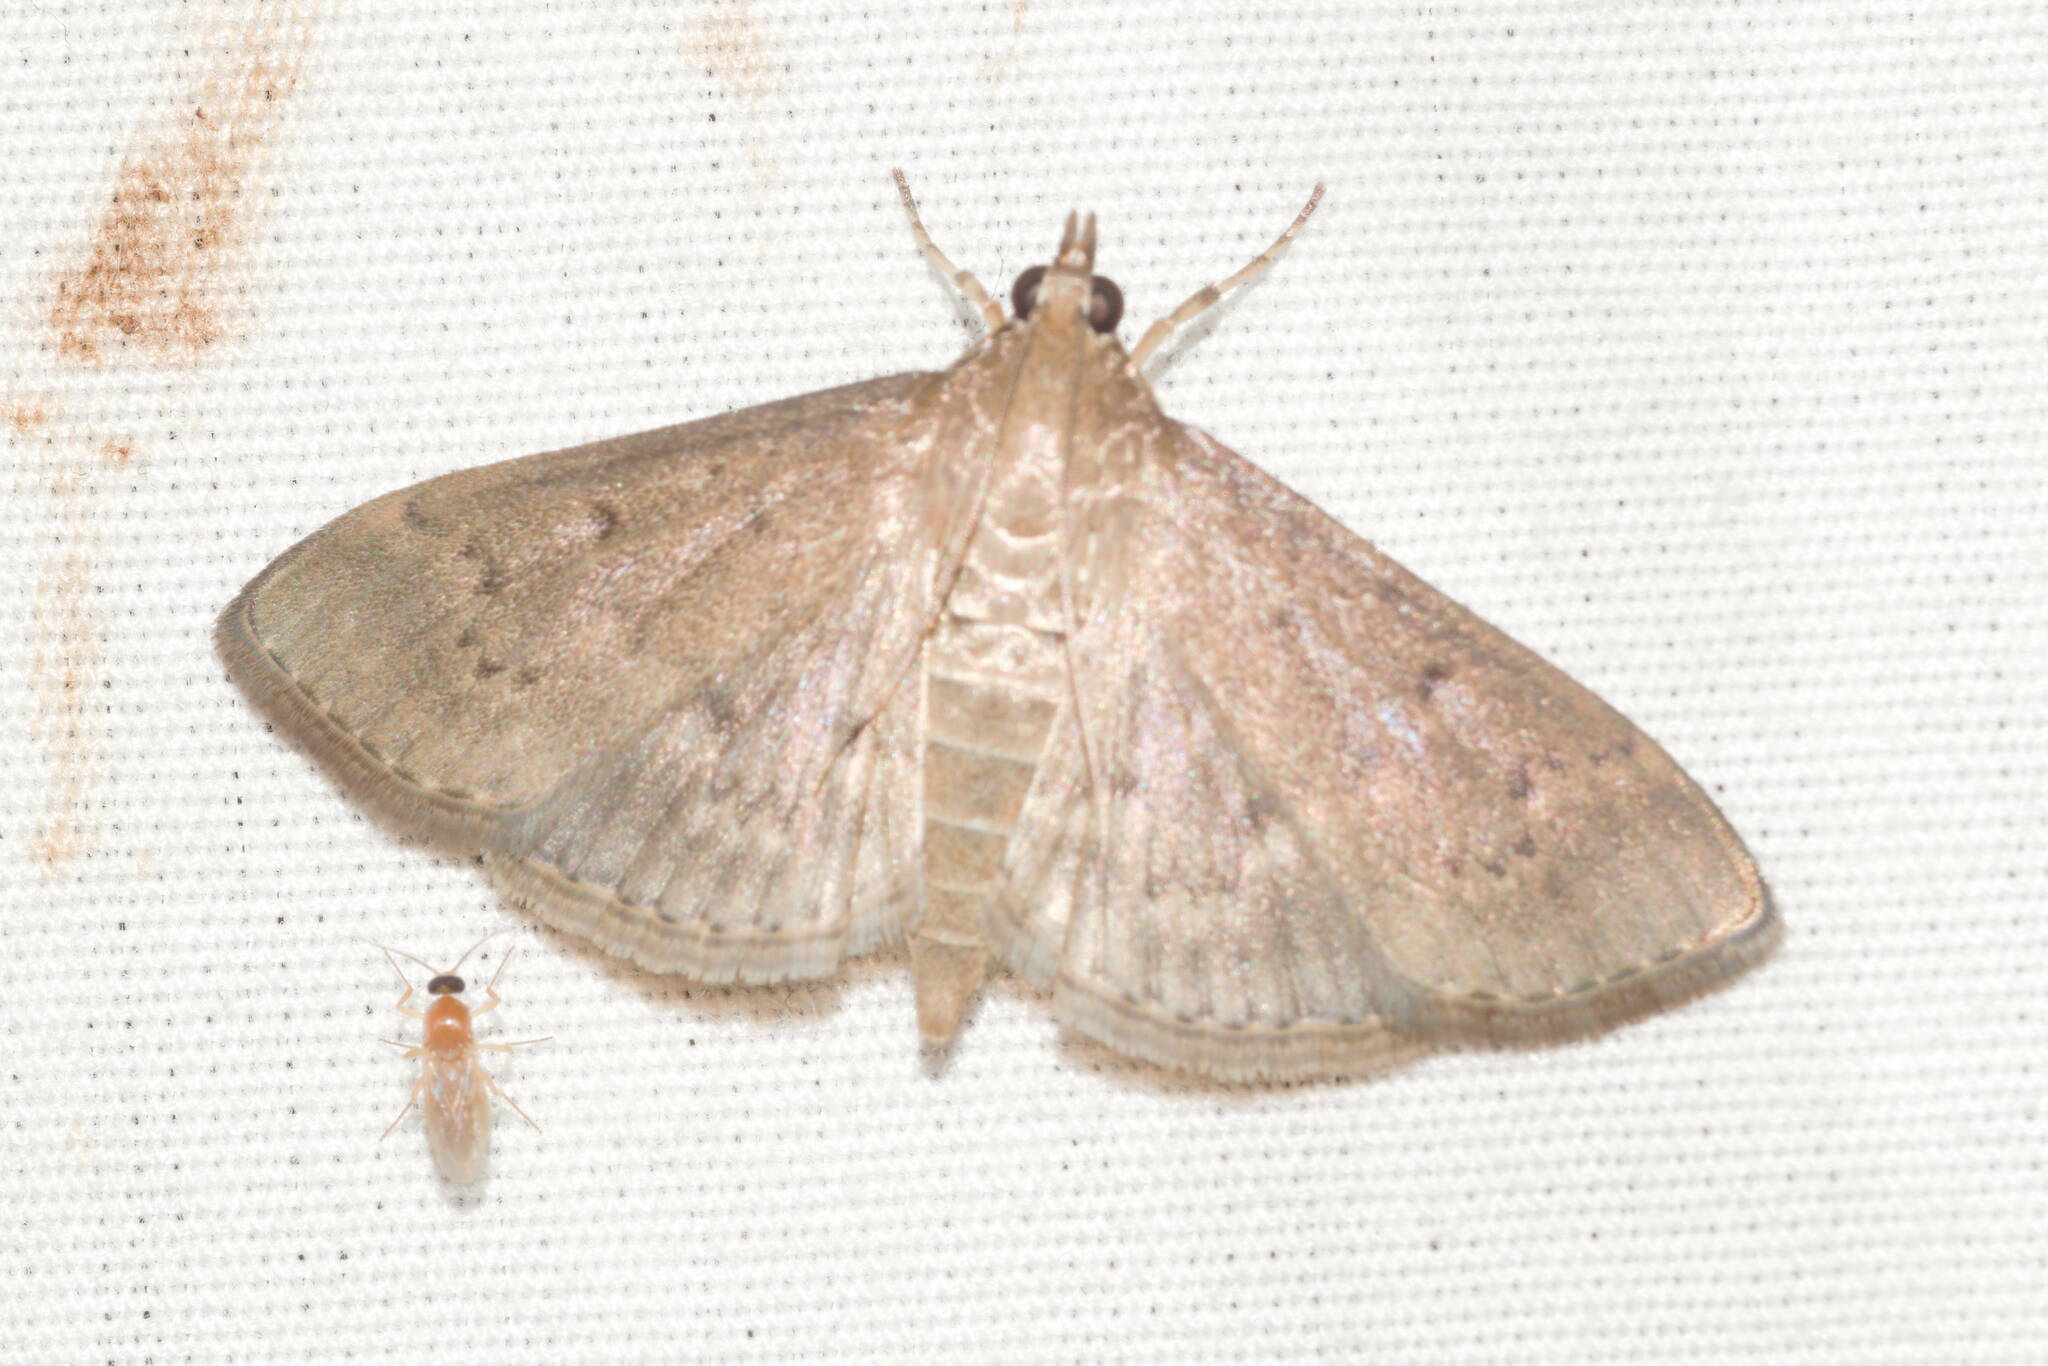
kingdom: Animalia
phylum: Arthropoda
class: Insecta
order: Lepidoptera
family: Crambidae
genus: Herpetogramma
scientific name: Herpetogramma licarsisalis
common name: Grass webworm
